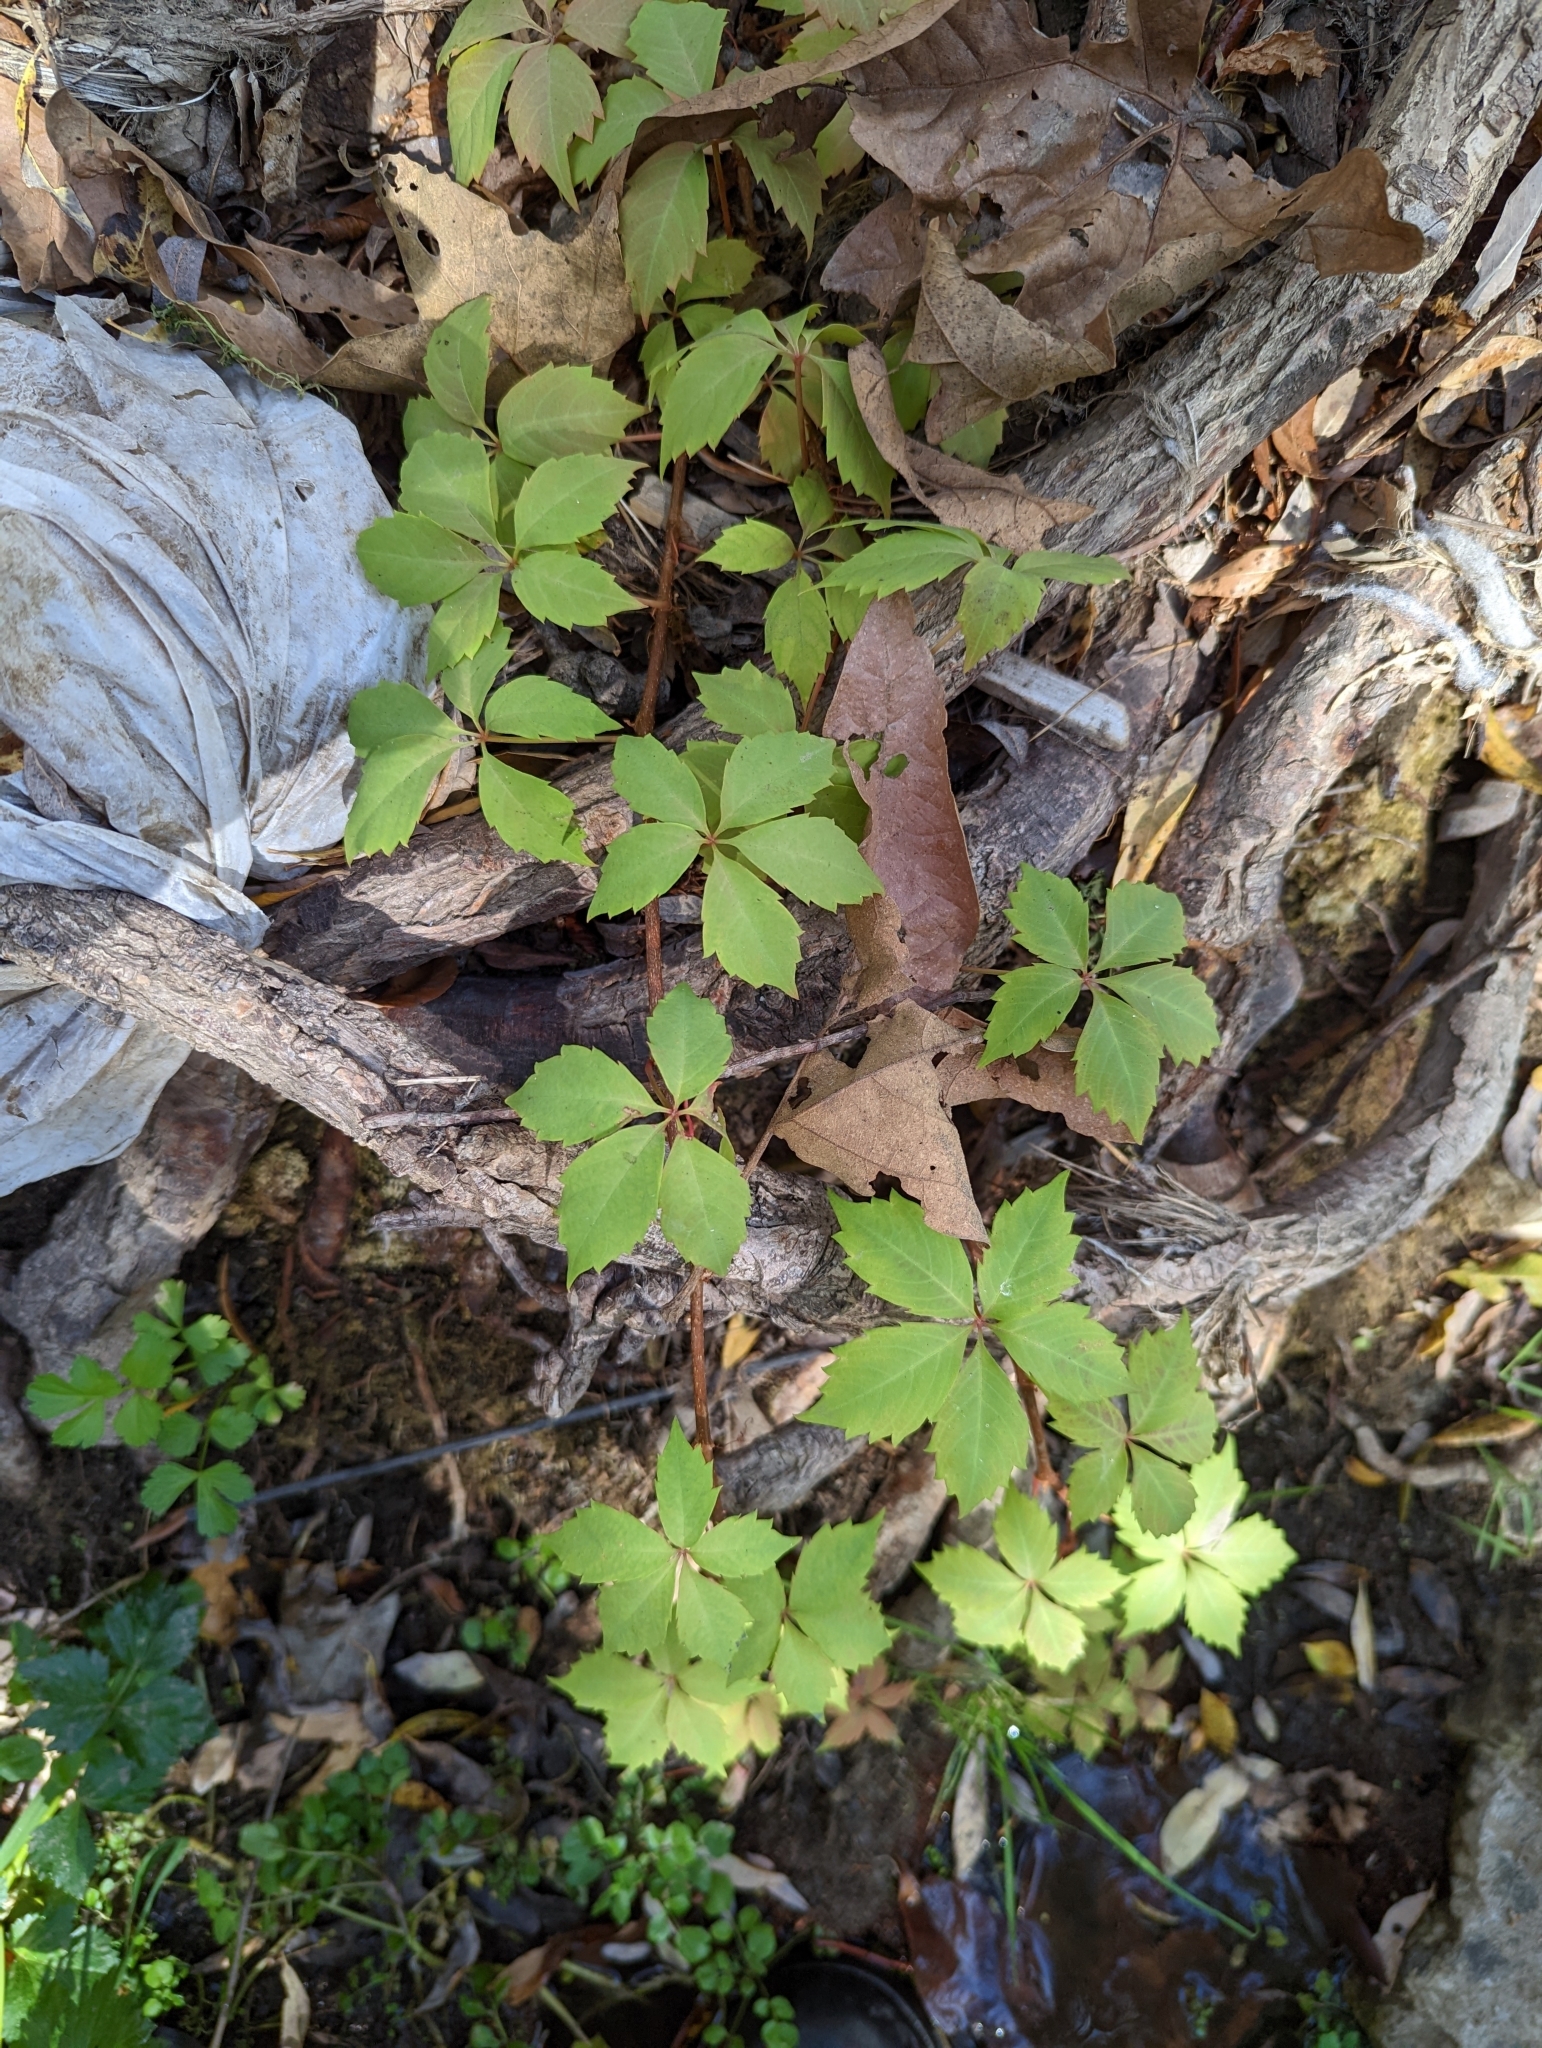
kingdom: Plantae
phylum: Tracheophyta
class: Magnoliopsida
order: Vitales
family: Vitaceae
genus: Parthenocissus
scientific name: Parthenocissus quinquefolia
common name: Virginia-creeper
